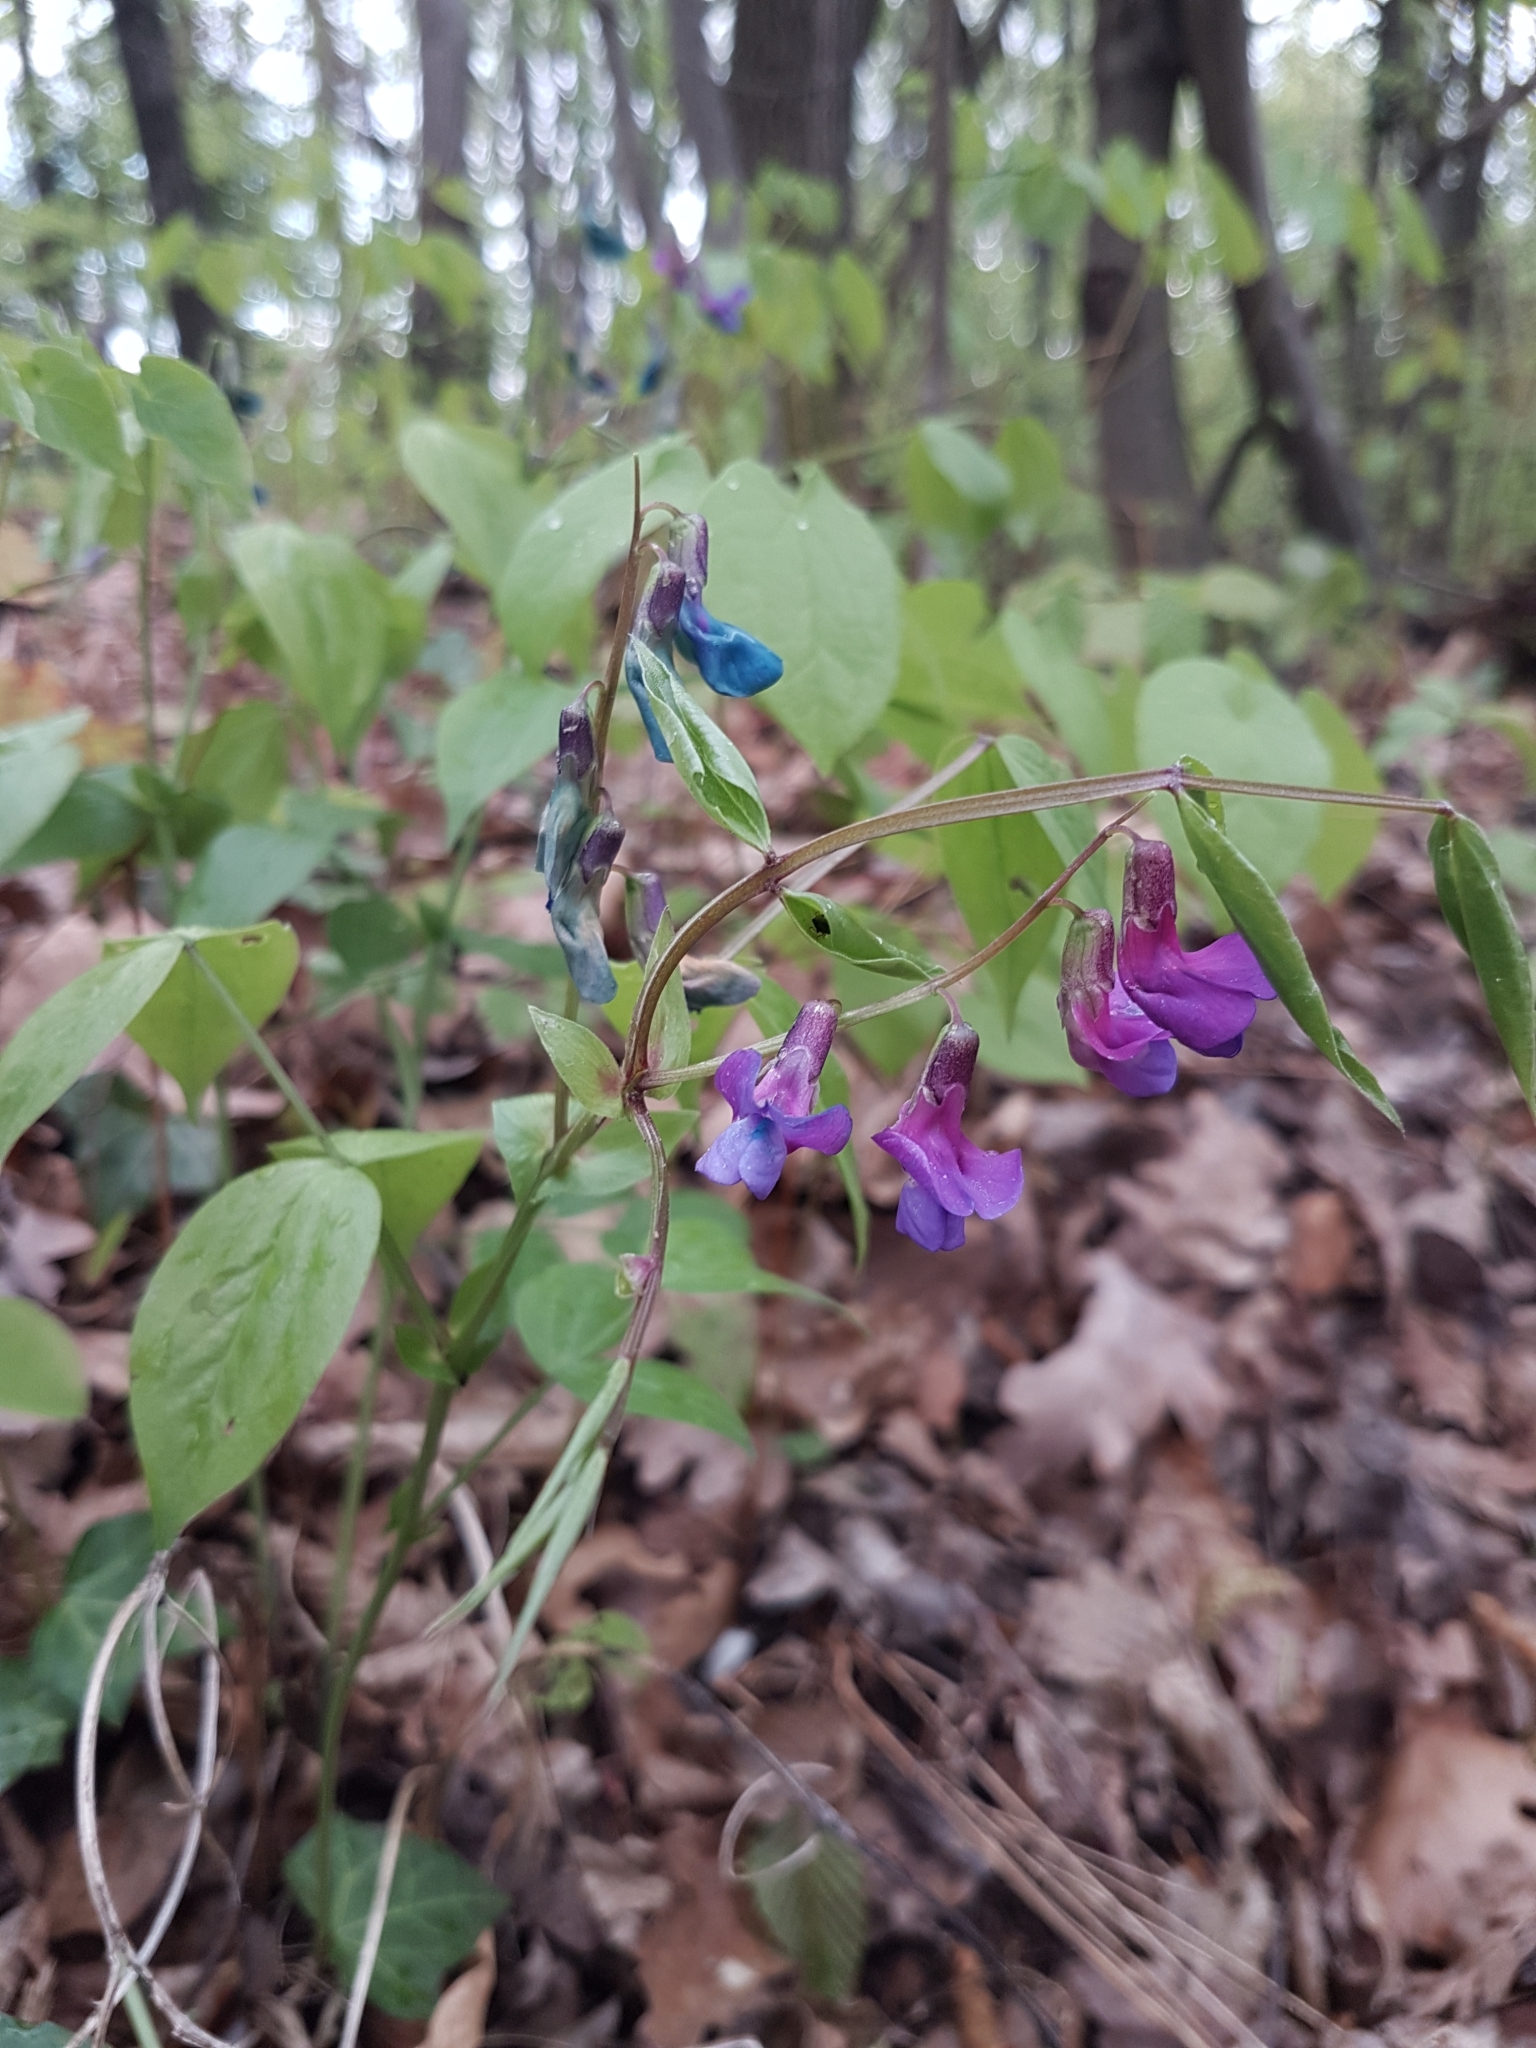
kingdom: Plantae
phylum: Tracheophyta
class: Magnoliopsida
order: Fabales
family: Fabaceae
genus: Lathyrus
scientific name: Lathyrus vernus
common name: Spring pea
